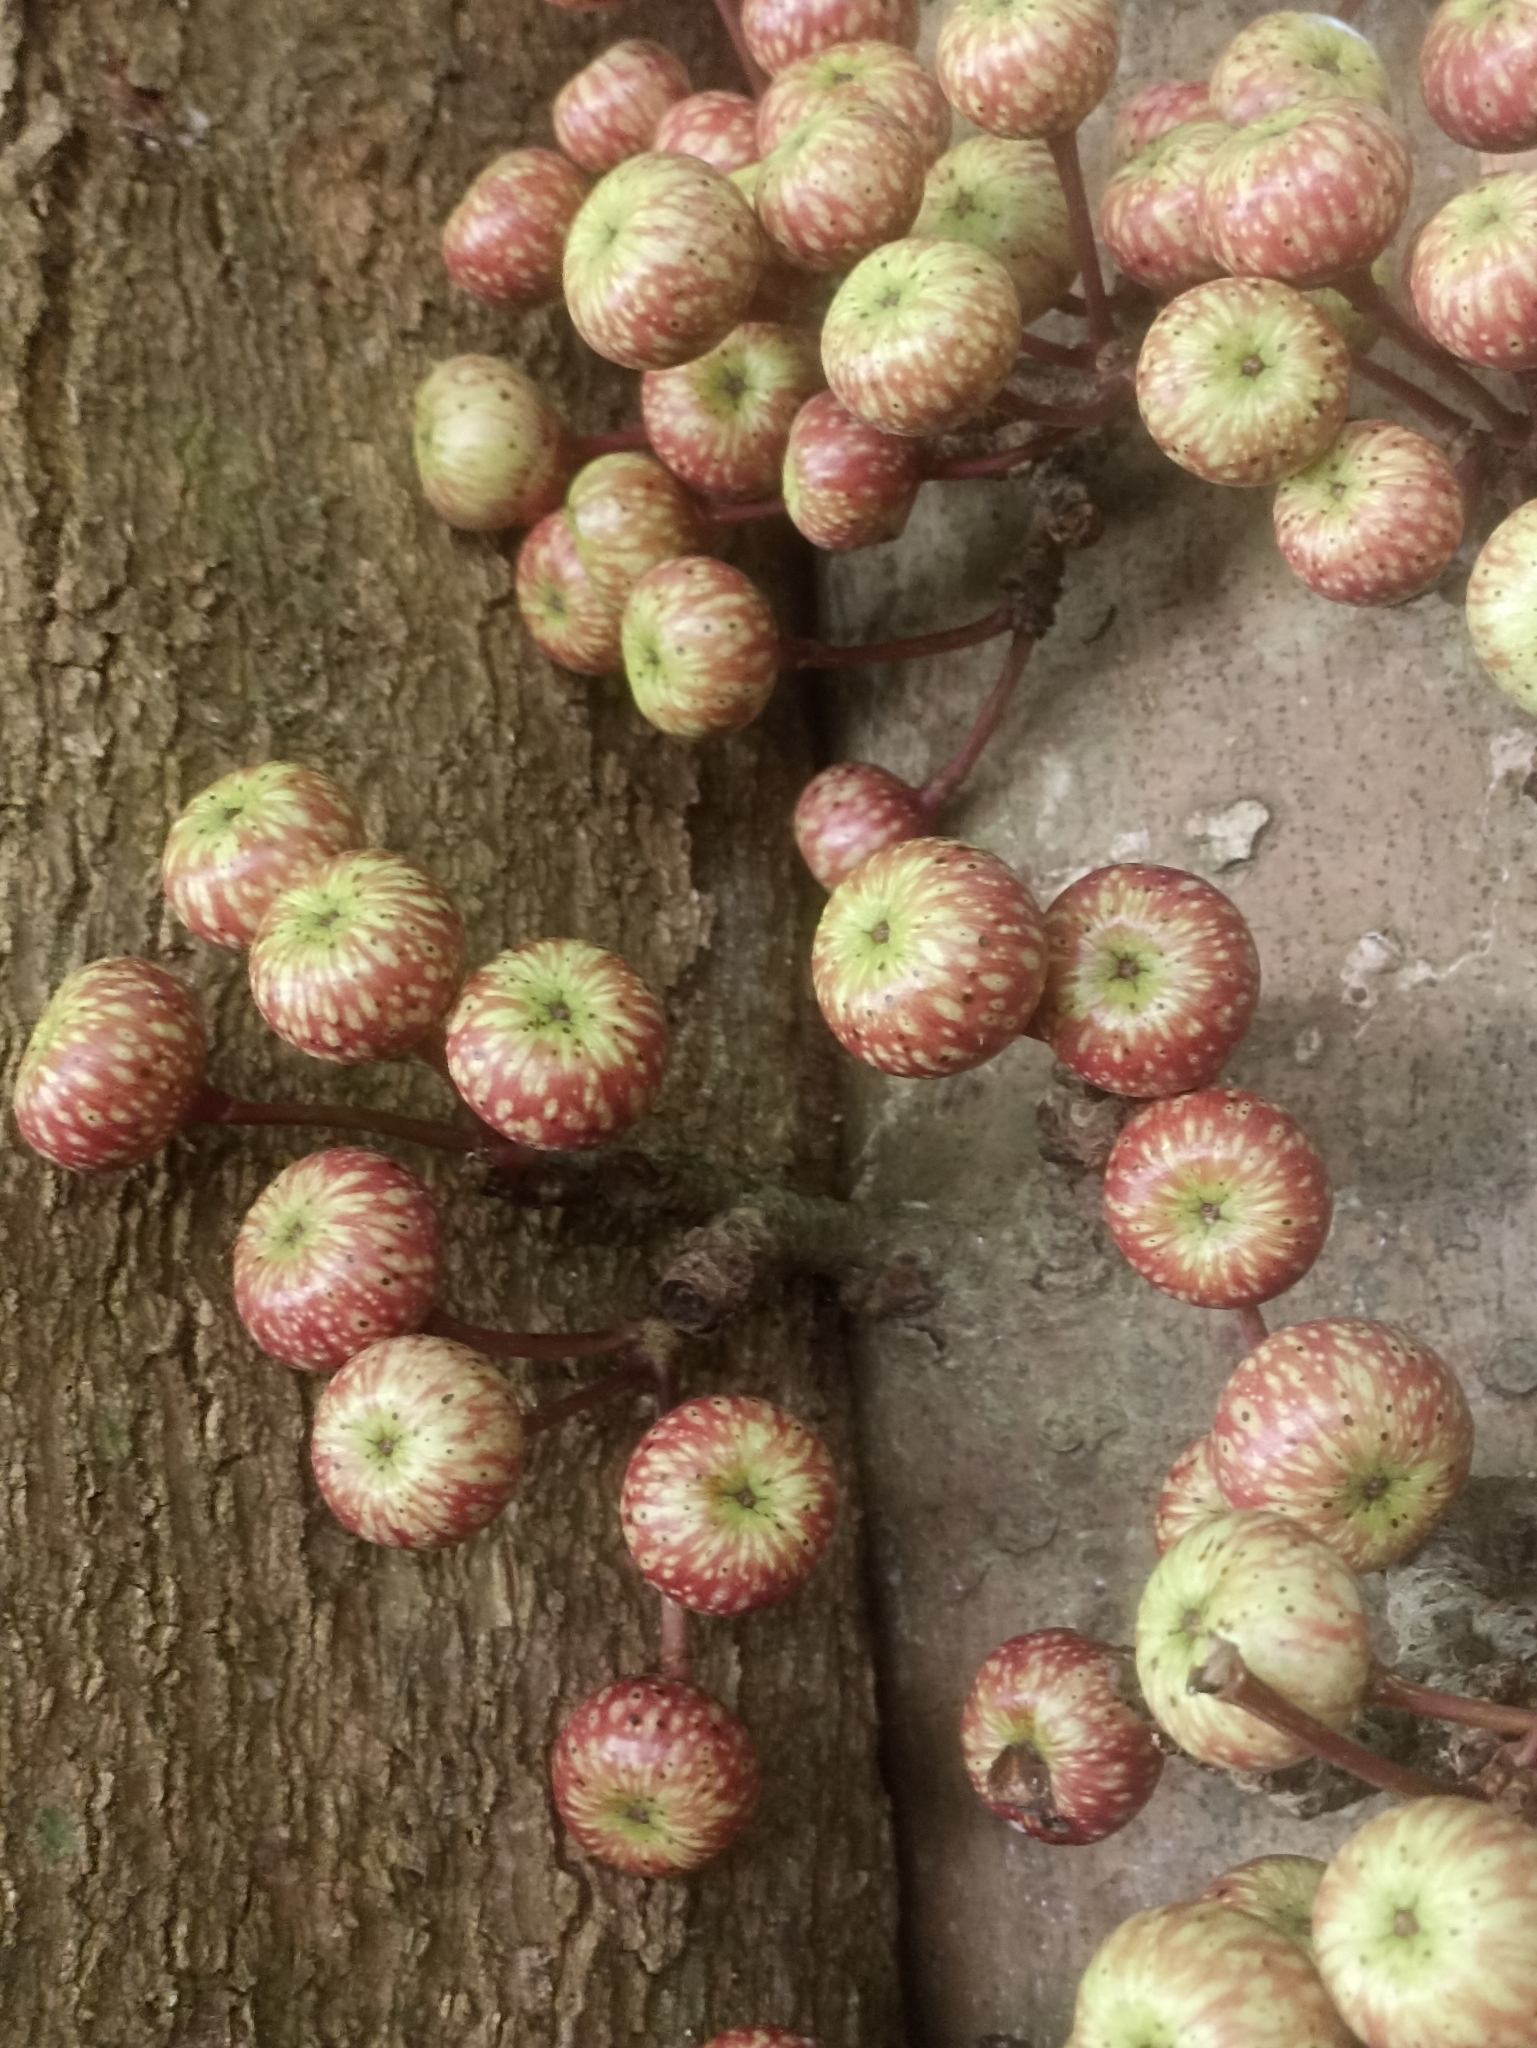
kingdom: Plantae
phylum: Tracheophyta
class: Magnoliopsida
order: Rosales
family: Moraceae
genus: Ficus
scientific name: Ficus variegata
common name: Variegated fig
